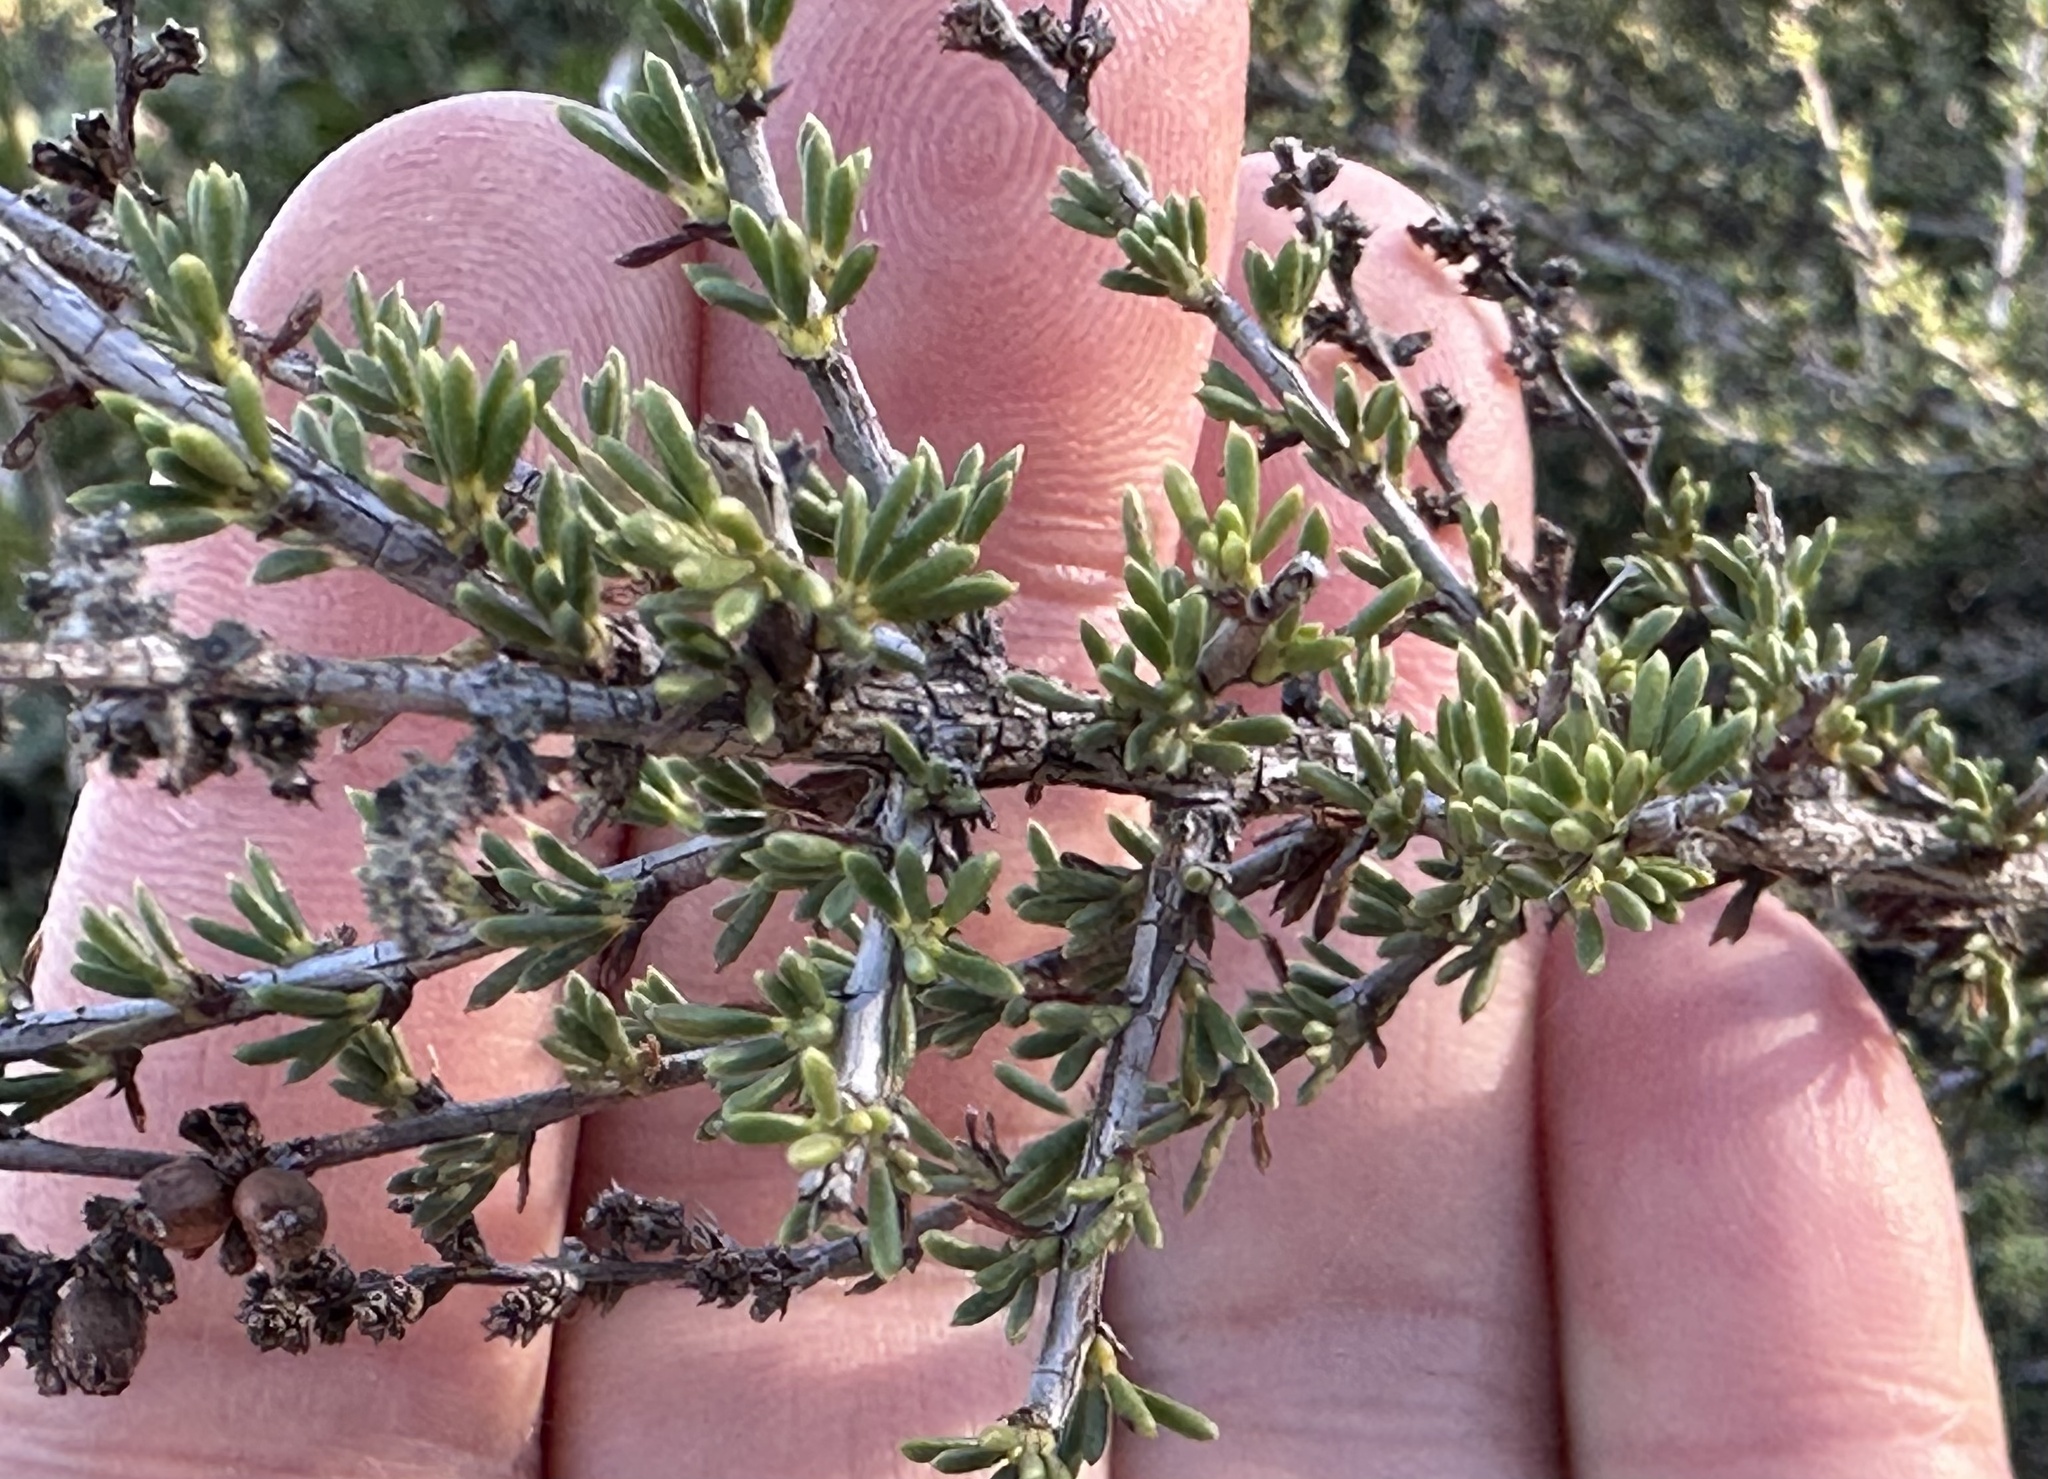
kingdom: Plantae
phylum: Tracheophyta
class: Magnoliopsida
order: Rosales
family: Rosaceae
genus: Adenostoma
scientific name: Adenostoma fasciculatum
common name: Chamise
